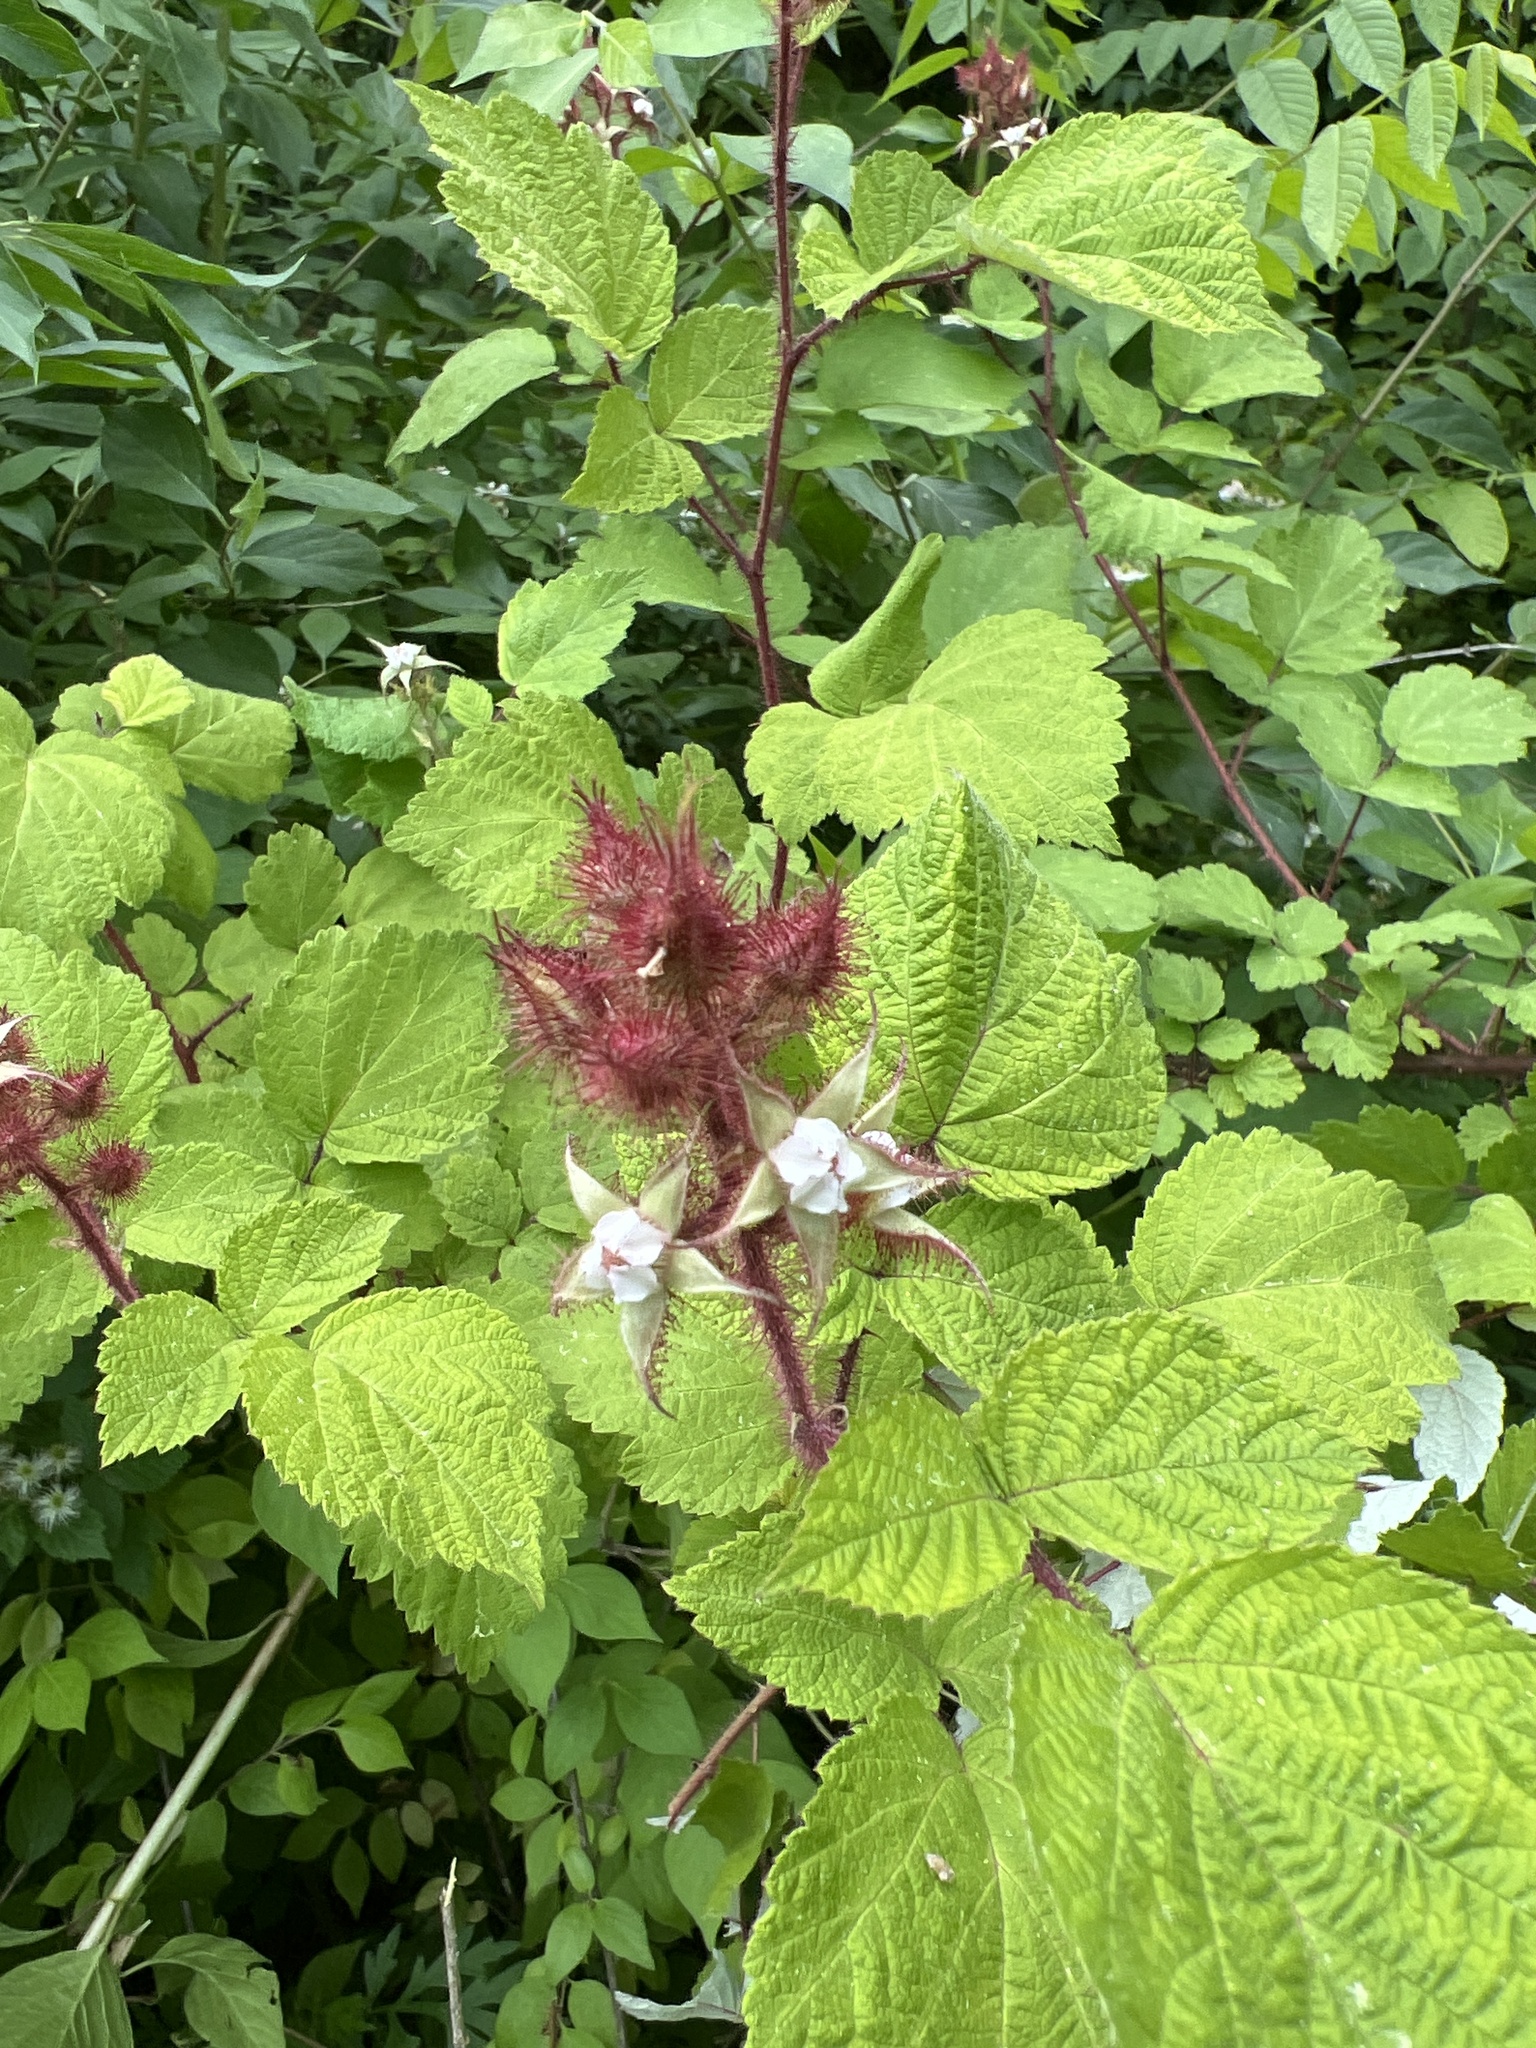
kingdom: Plantae
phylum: Tracheophyta
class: Magnoliopsida
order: Rosales
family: Rosaceae
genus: Rubus
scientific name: Rubus phoenicolasius
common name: Japanese wineberry
